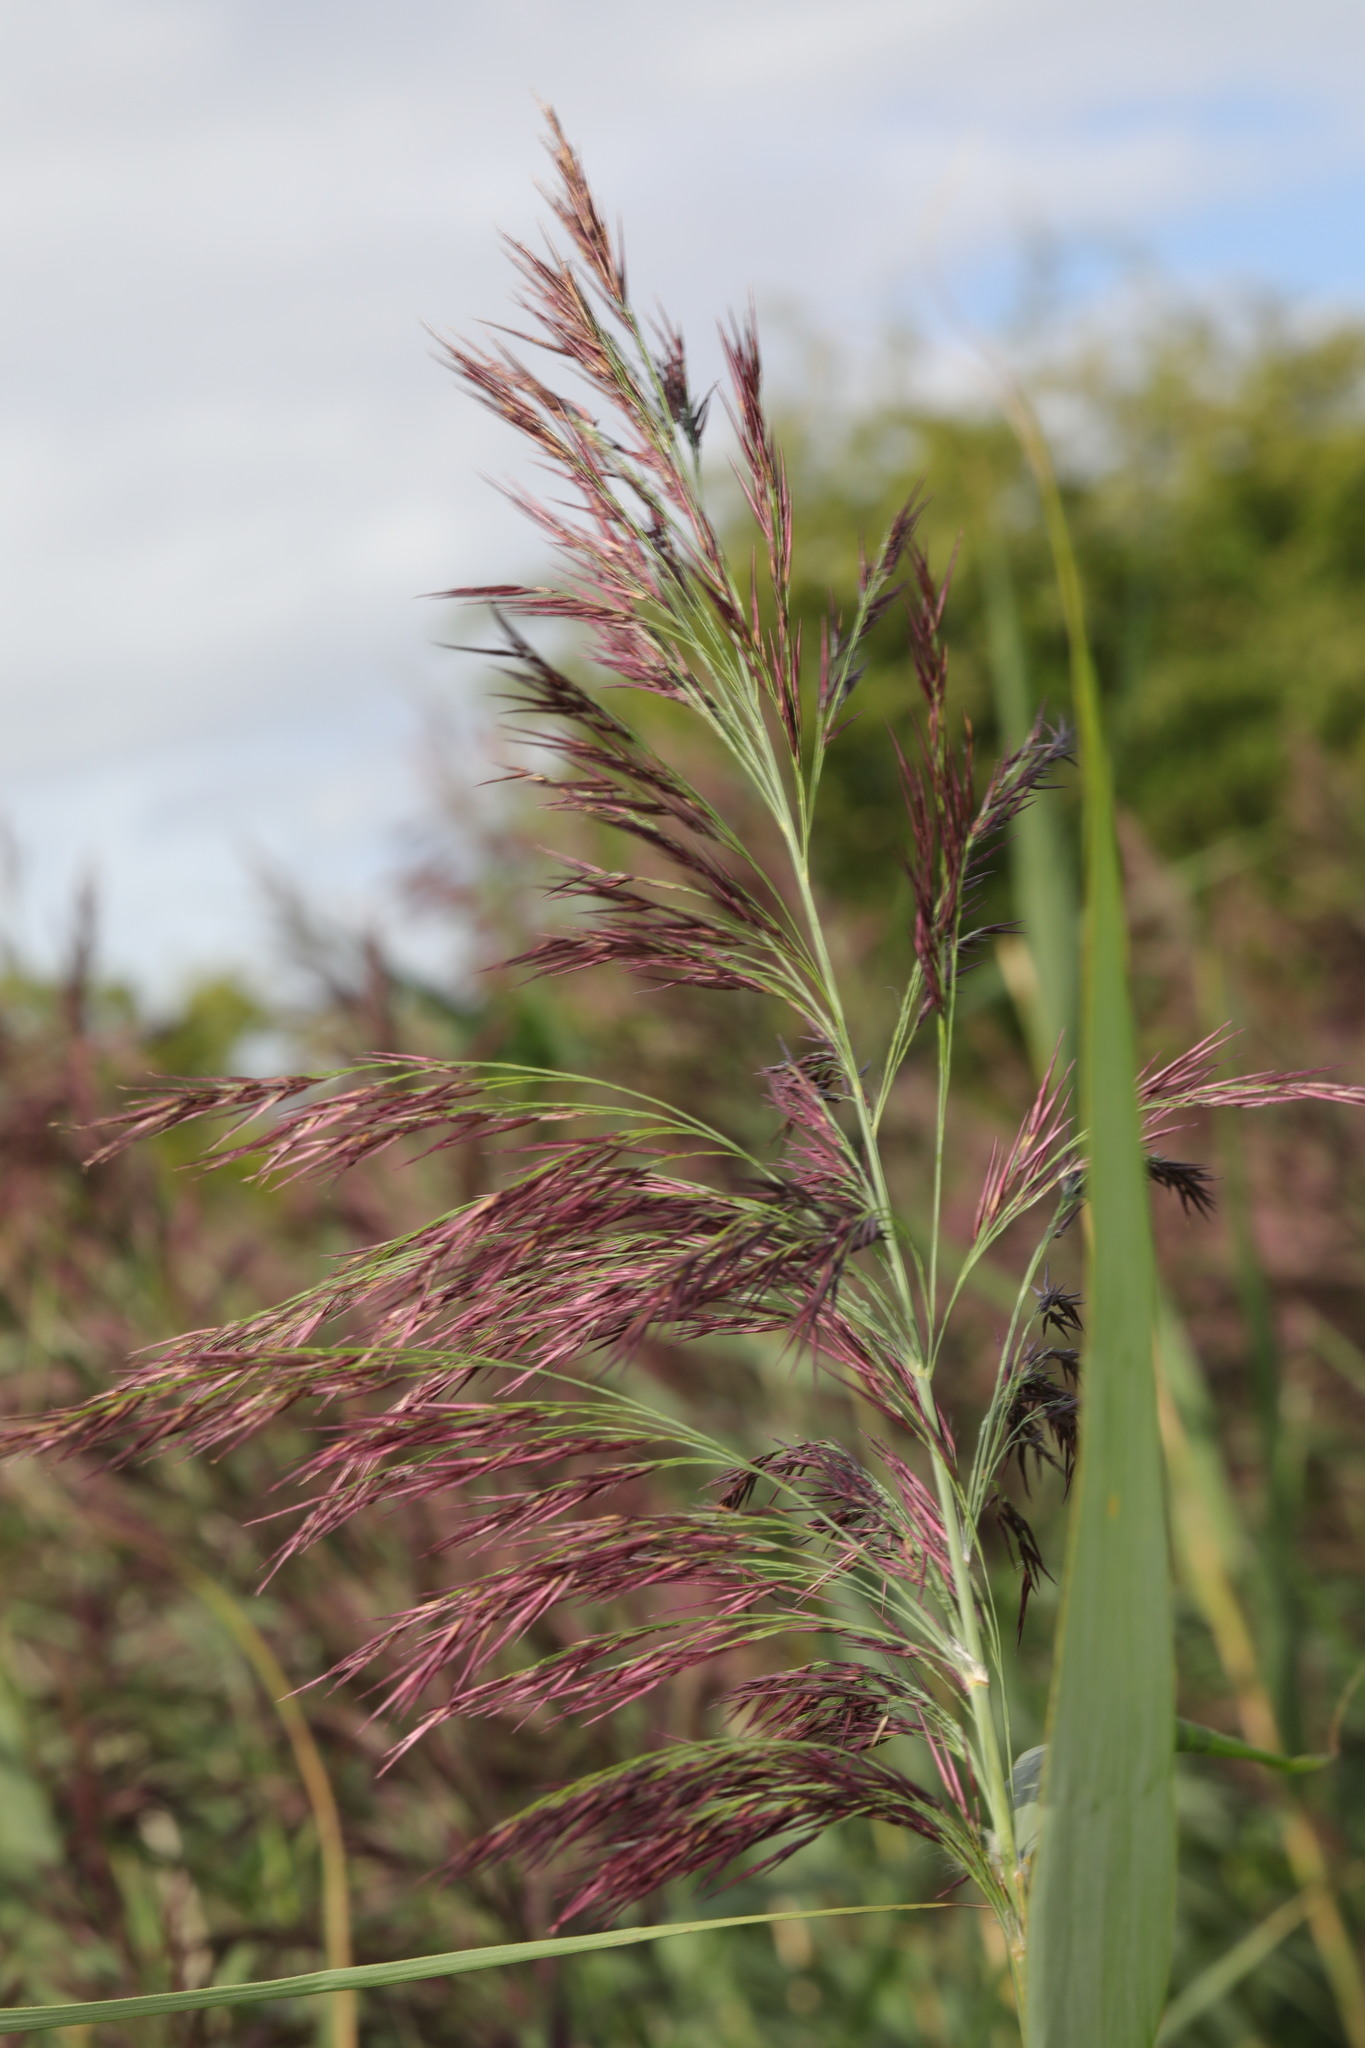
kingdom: Plantae
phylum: Tracheophyta
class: Liliopsida
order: Poales
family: Poaceae
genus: Phragmites
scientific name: Phragmites australis
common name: Common reed
